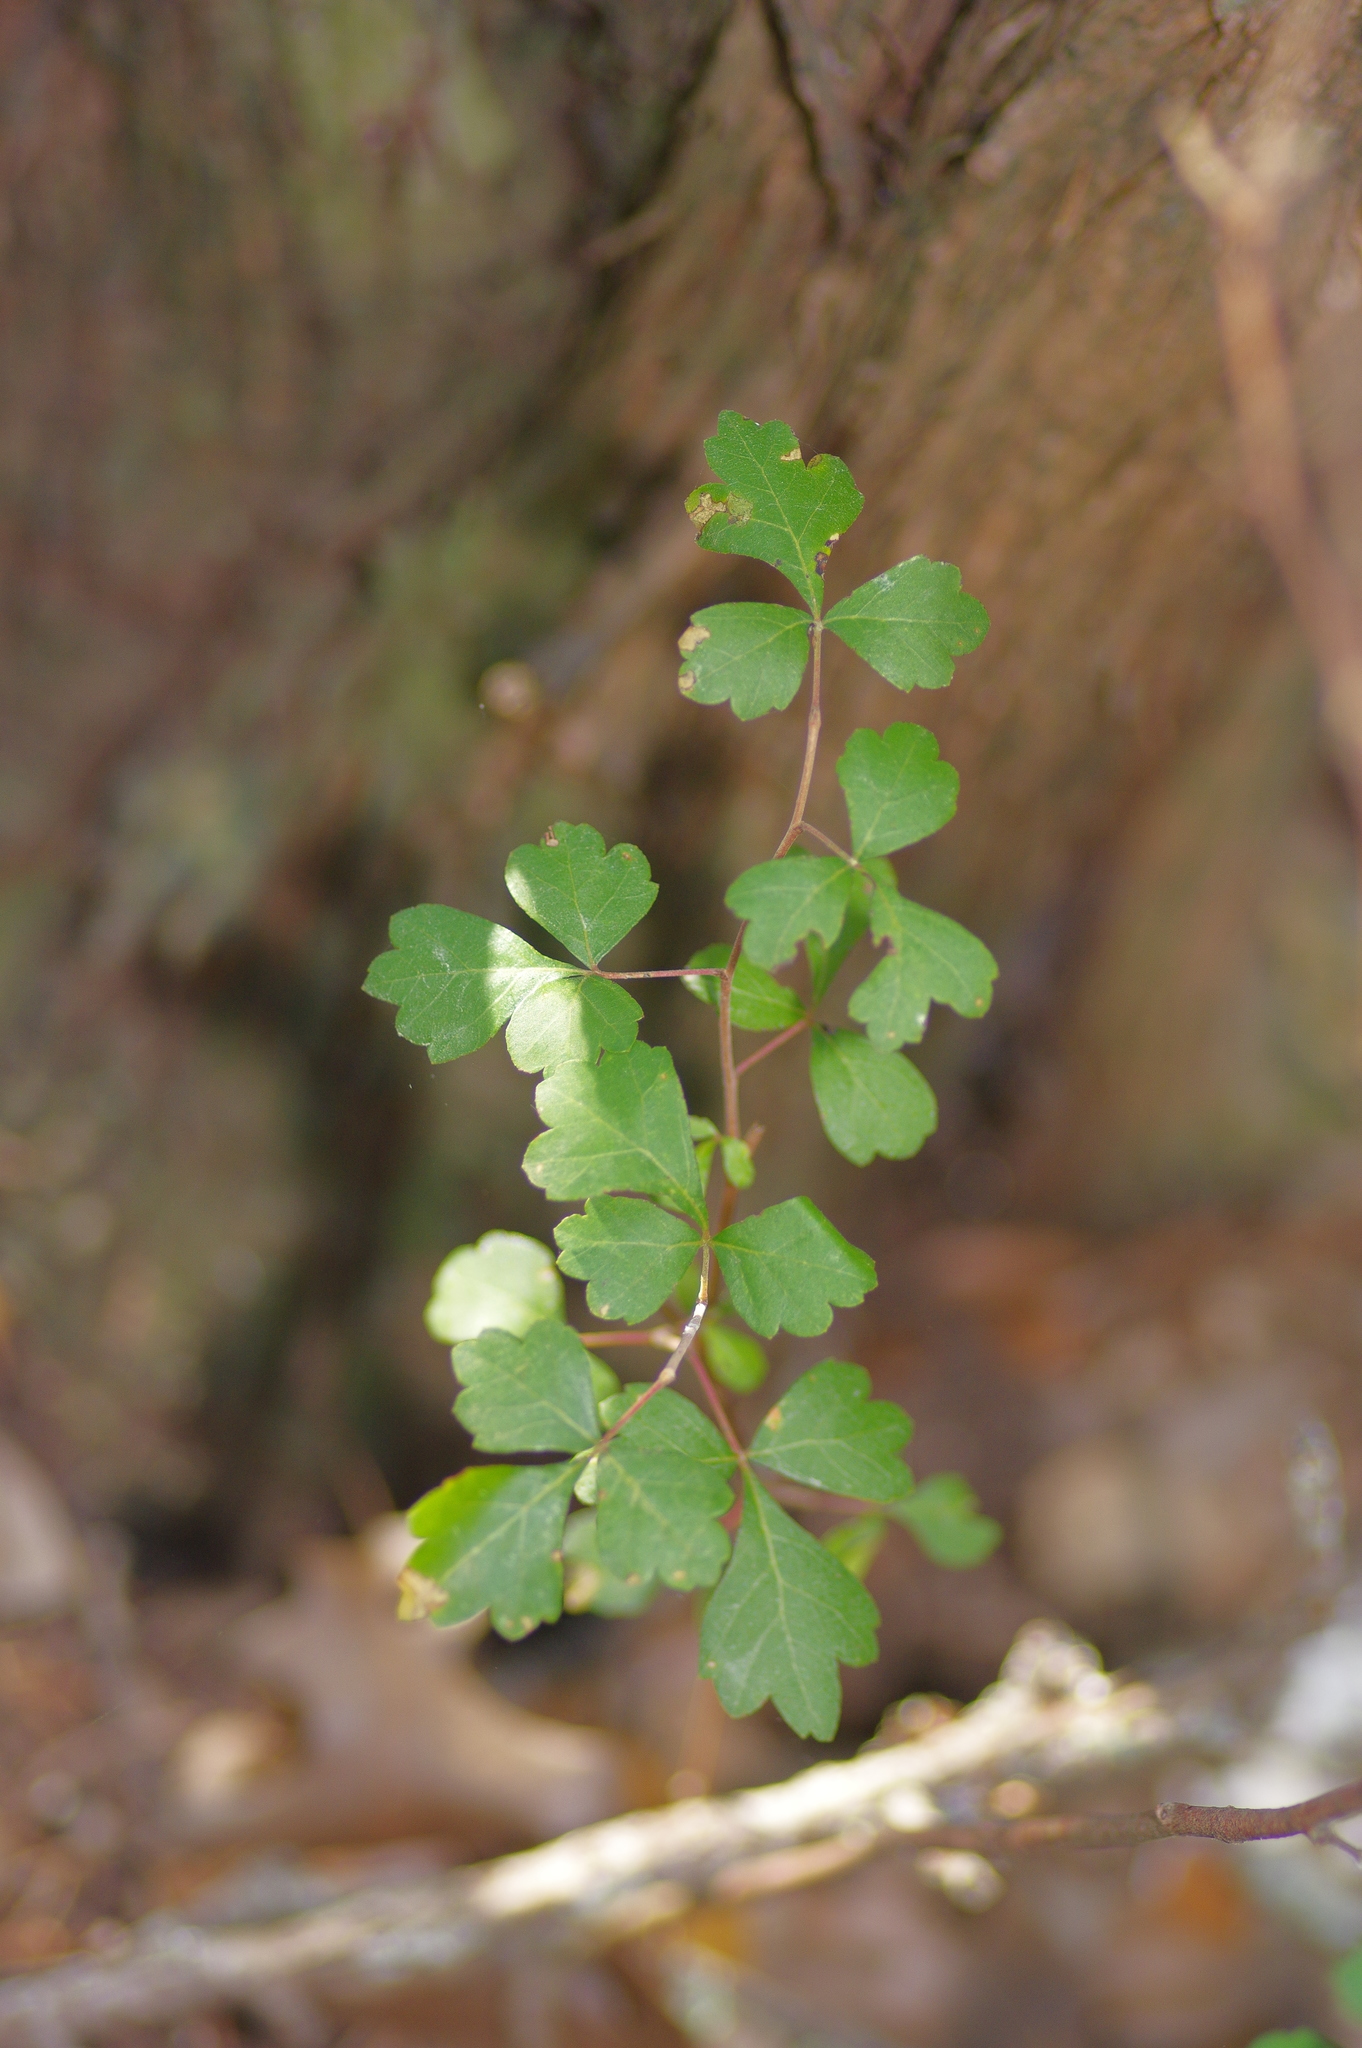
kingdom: Plantae
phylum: Tracheophyta
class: Magnoliopsida
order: Sapindales
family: Anacardiaceae
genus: Rhus
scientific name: Rhus aromatica
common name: Aromatic sumac
